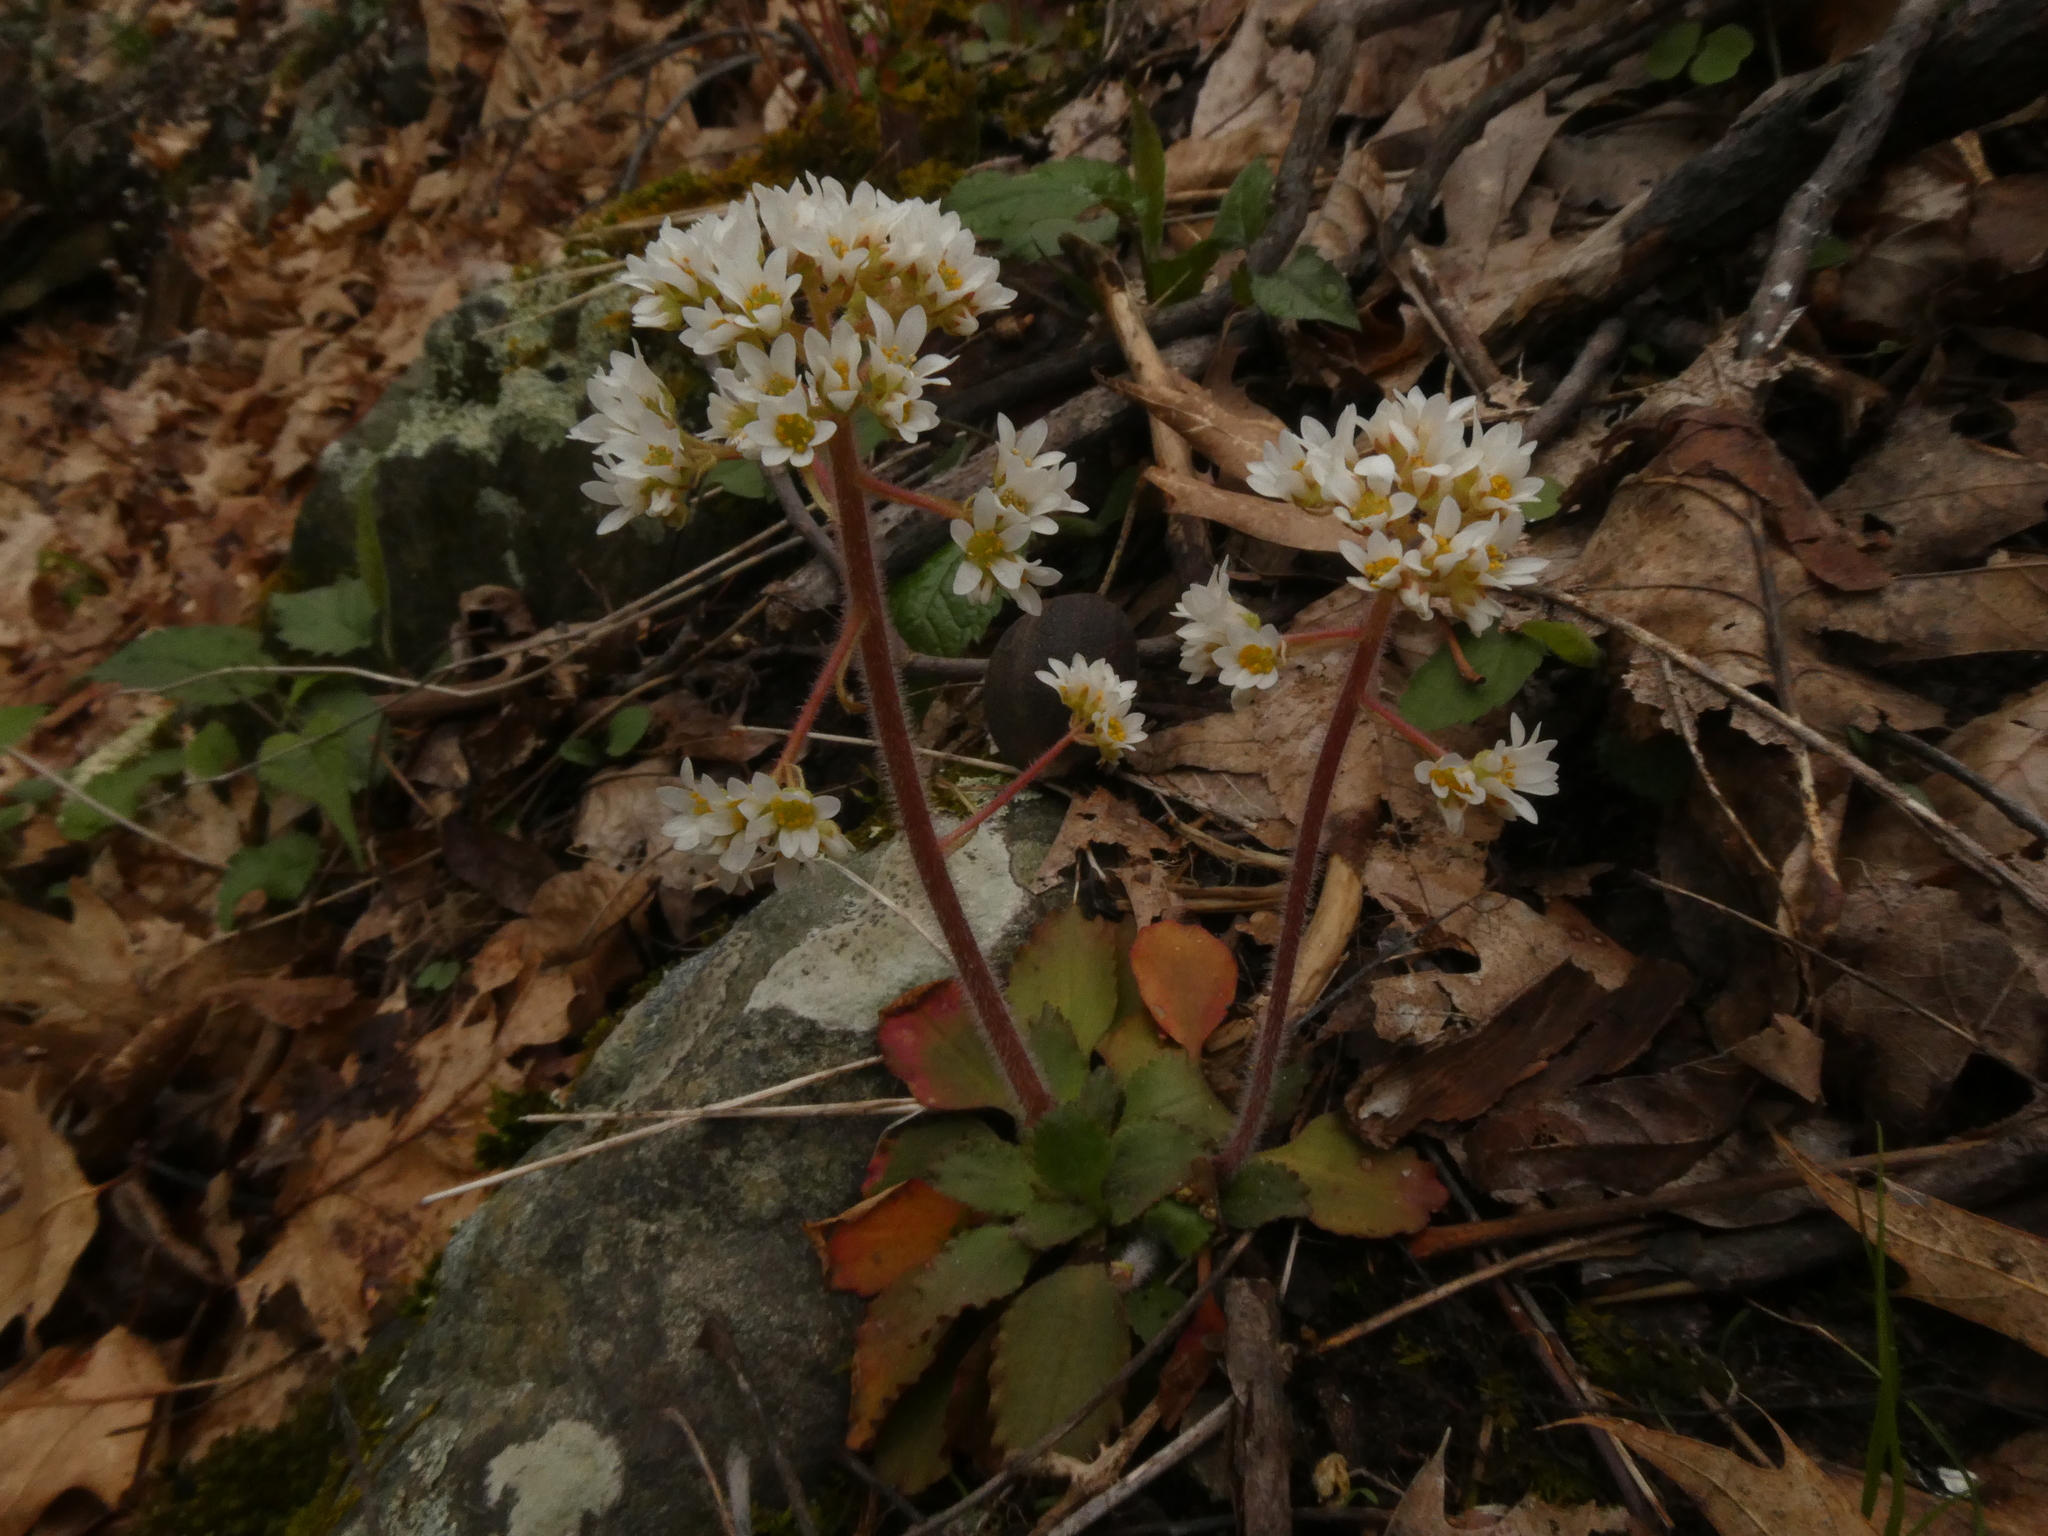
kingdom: Plantae
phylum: Tracheophyta
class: Magnoliopsida
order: Saxifragales
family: Saxifragaceae
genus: Micranthes
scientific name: Micranthes virginiensis
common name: Early saxifrage
